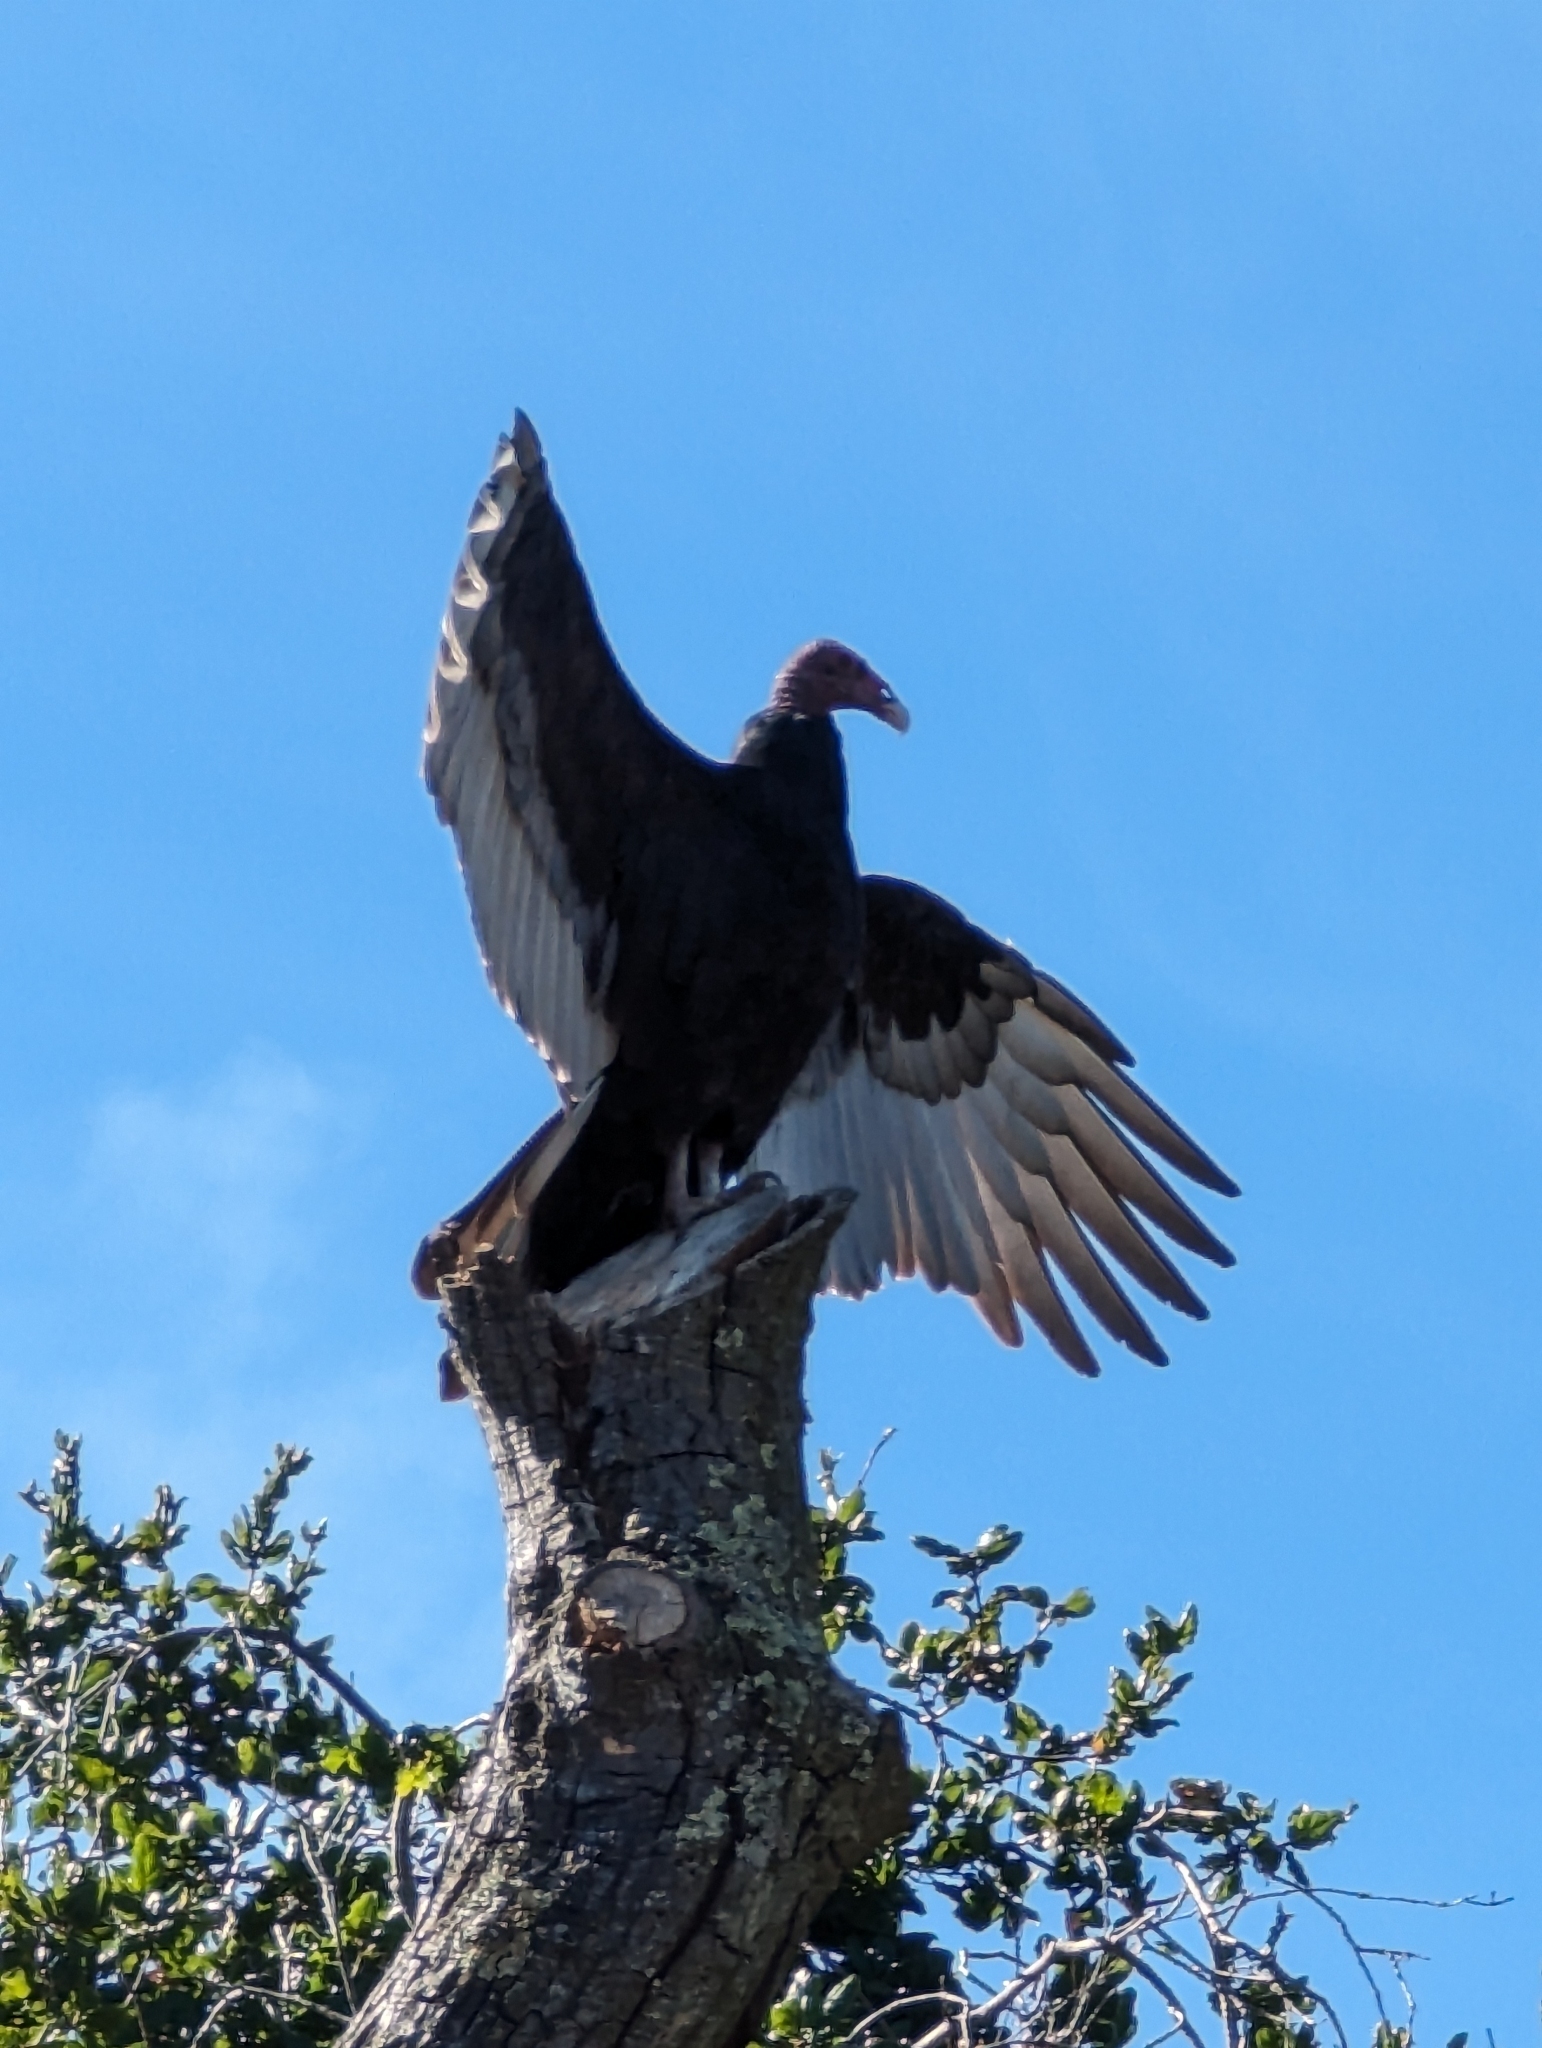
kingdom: Animalia
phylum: Chordata
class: Aves
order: Accipitriformes
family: Cathartidae
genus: Cathartes
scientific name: Cathartes aura
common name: Turkey vulture
